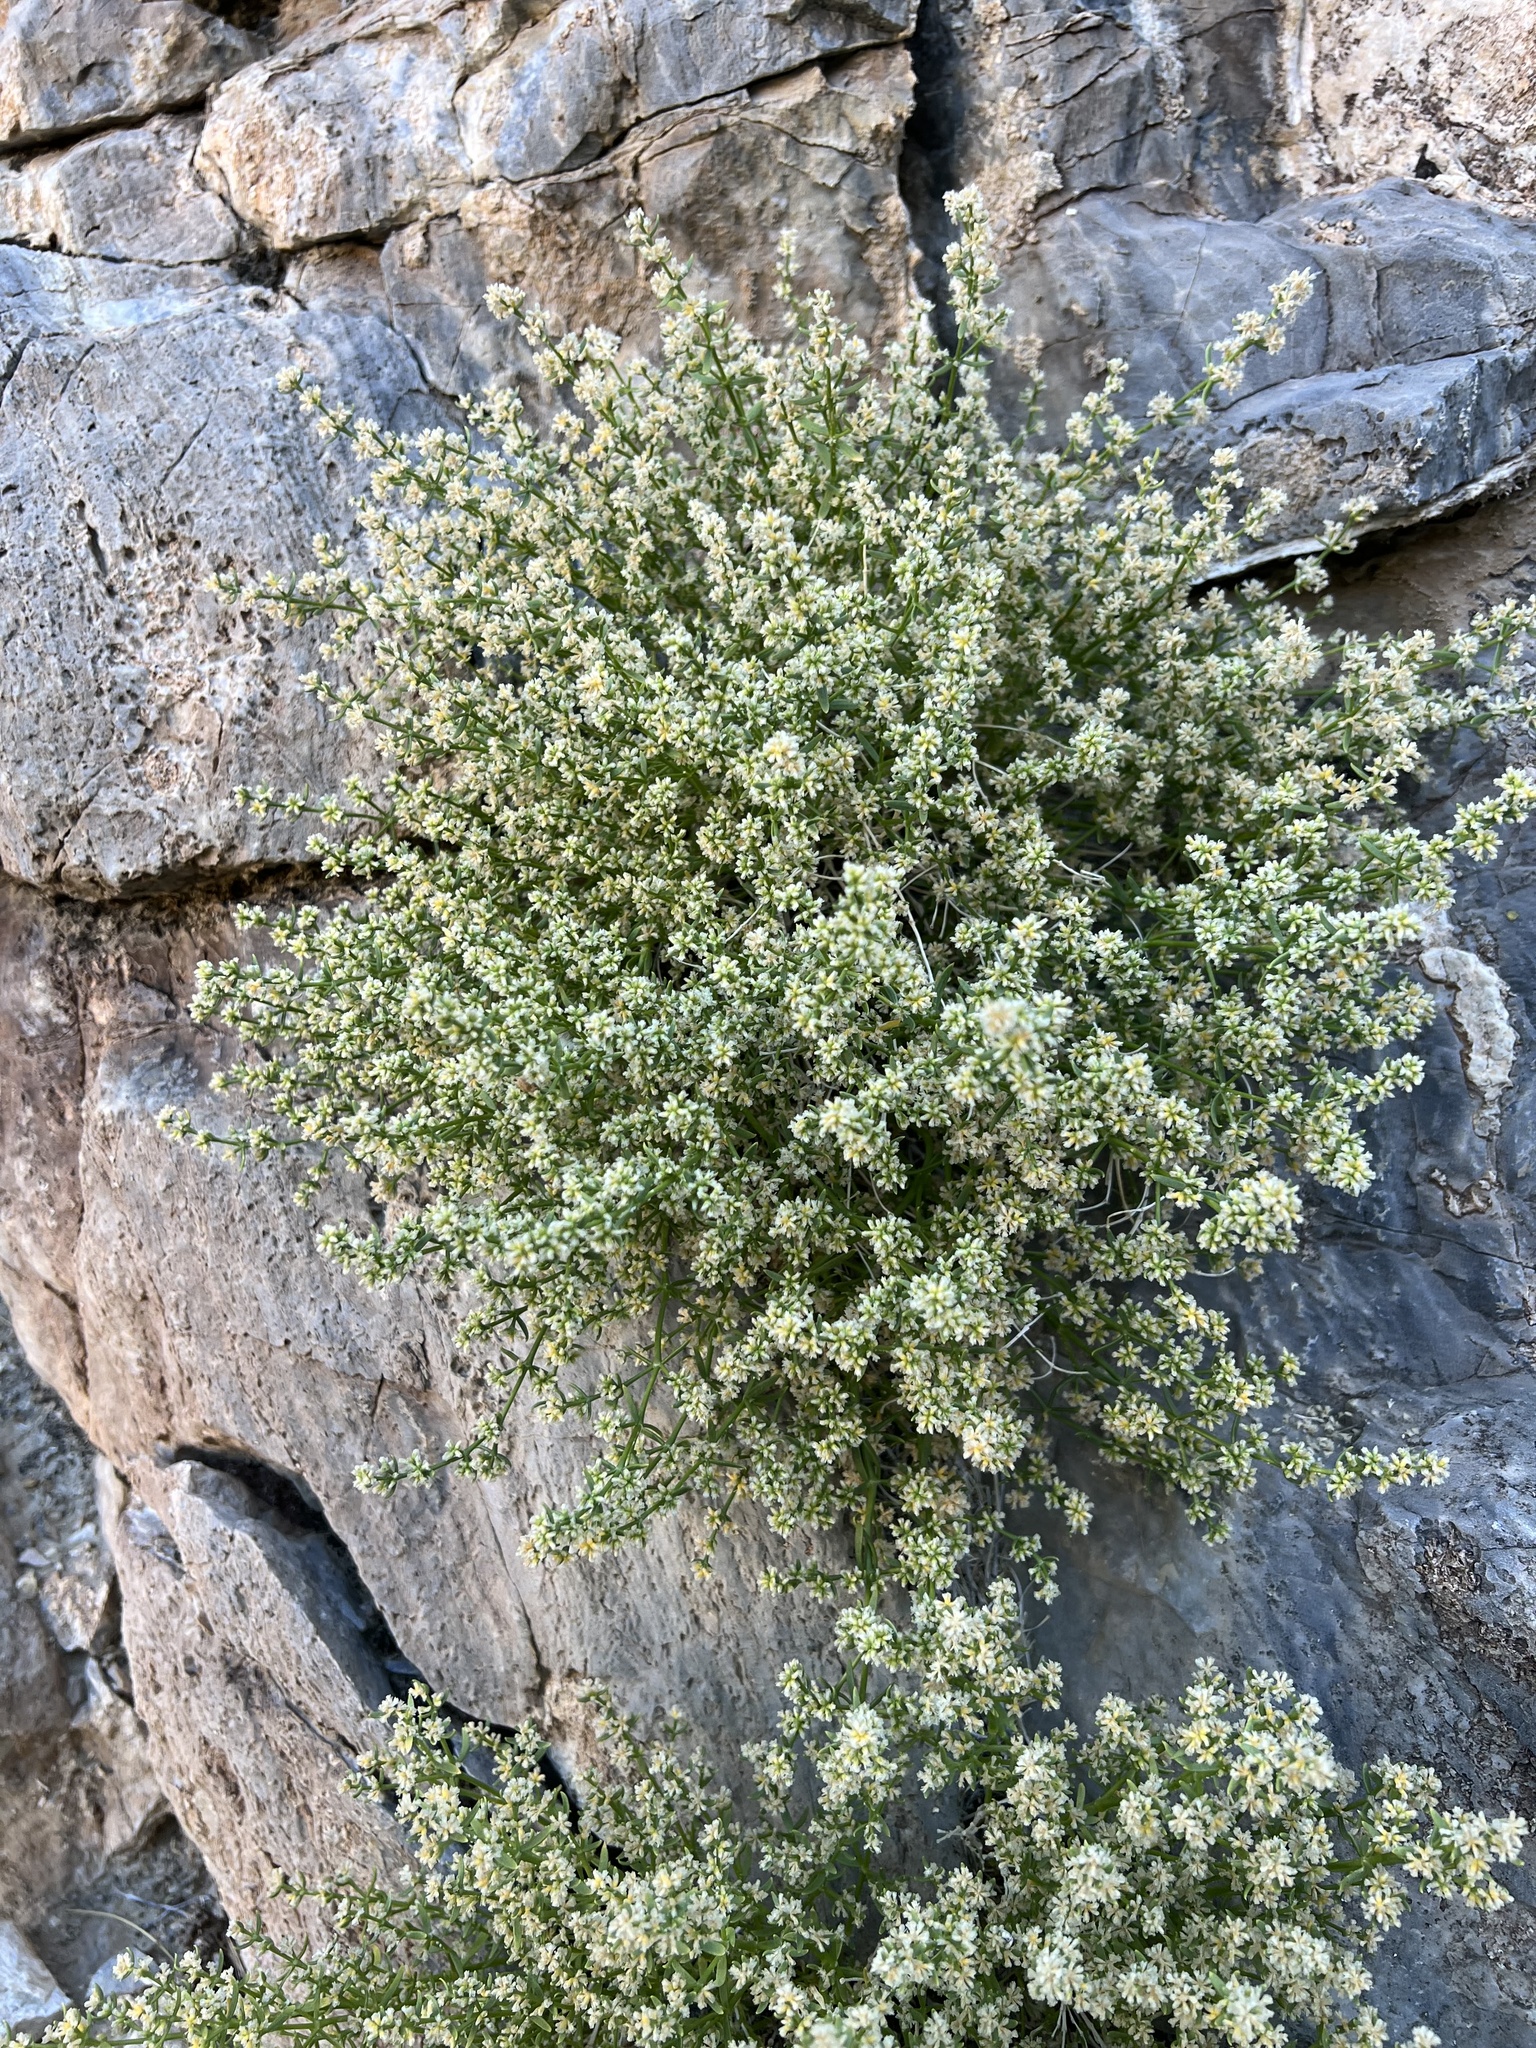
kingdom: Plantae
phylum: Tracheophyta
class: Magnoliopsida
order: Caryophyllales
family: Caryophyllaceae
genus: Scopulophila
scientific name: Scopulophila rixfordii
